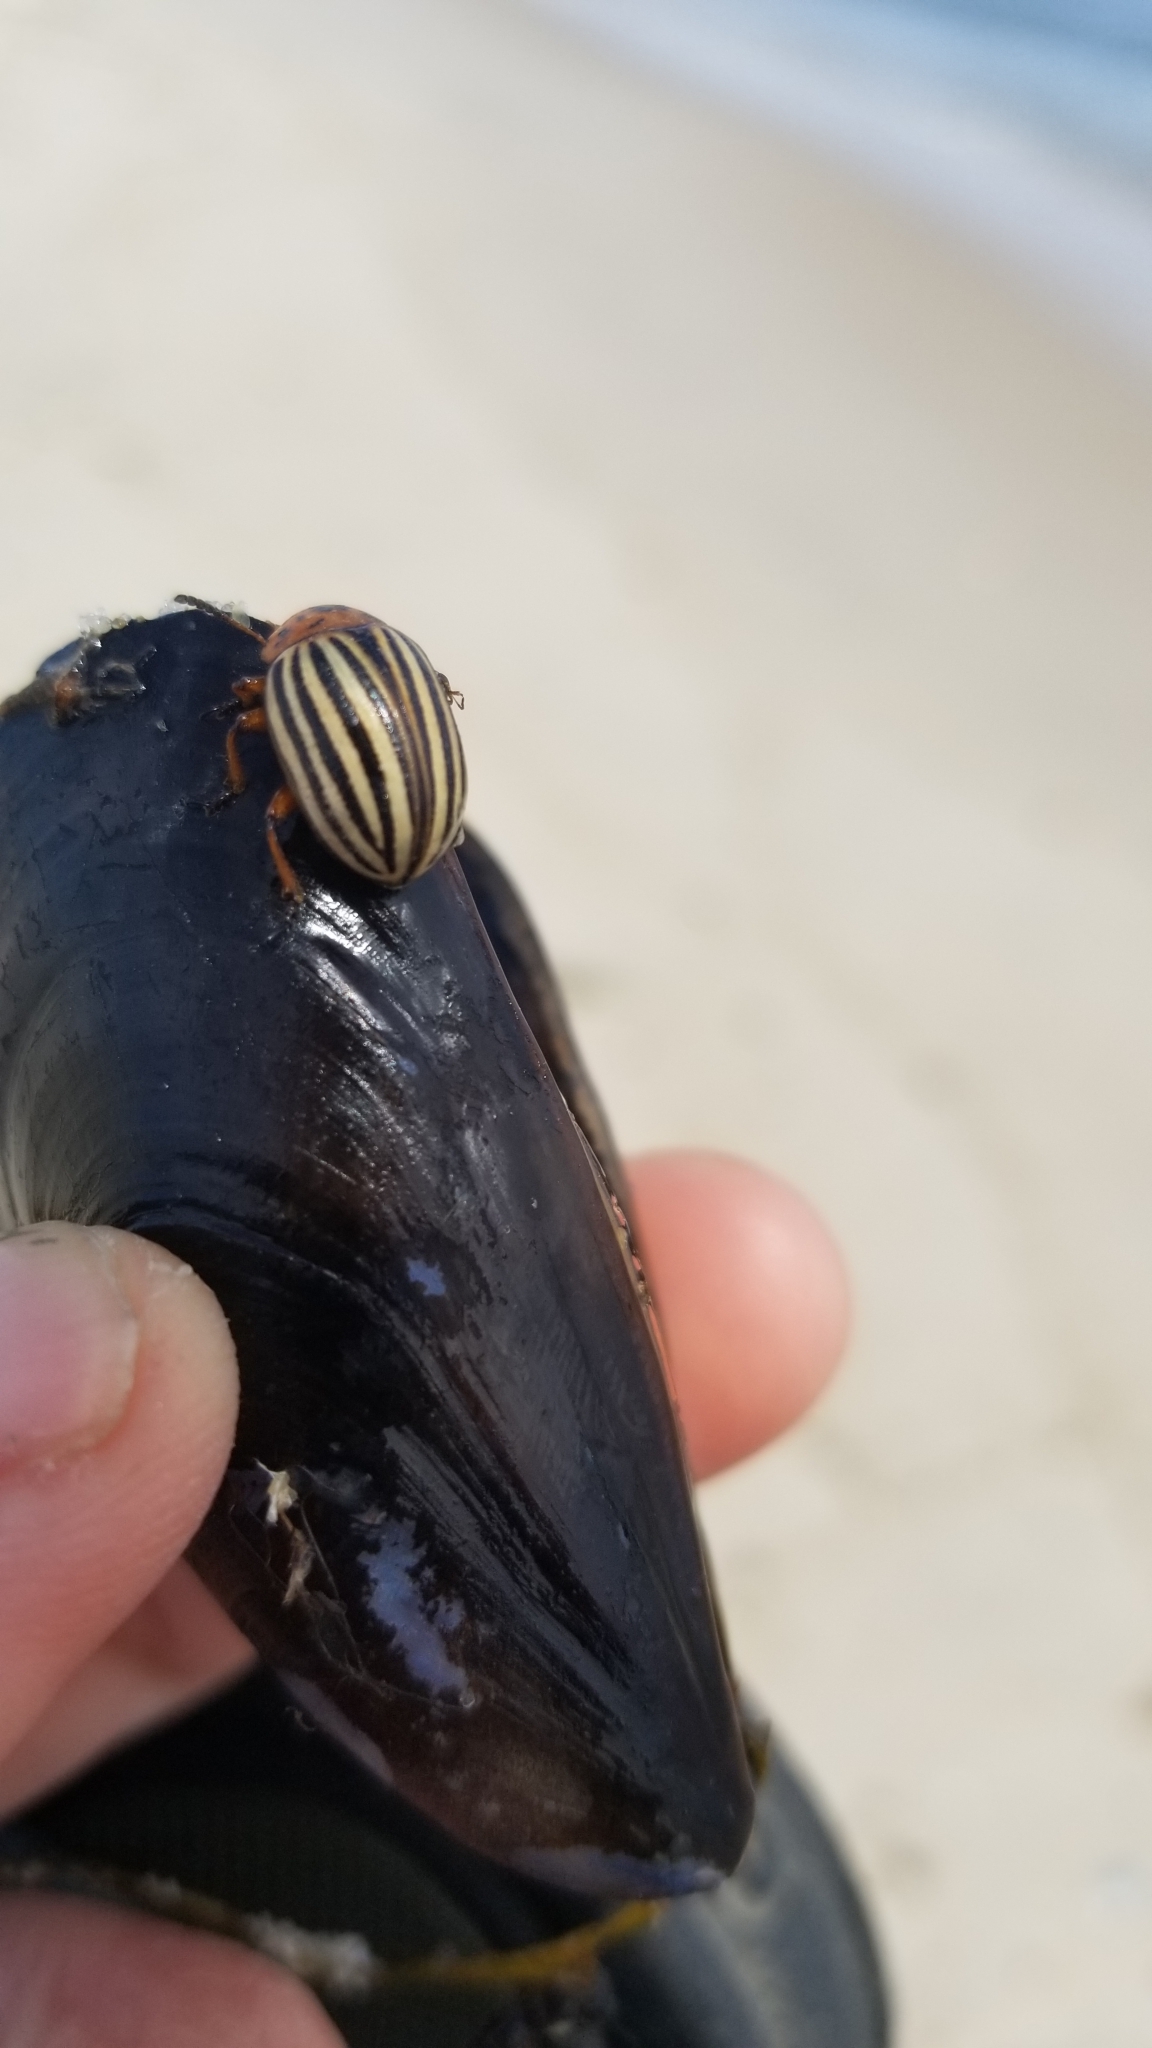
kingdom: Animalia
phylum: Arthropoda
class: Insecta
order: Coleoptera
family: Chrysomelidae
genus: Leptinotarsa
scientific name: Leptinotarsa decemlineata
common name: Colorado potato beetle
